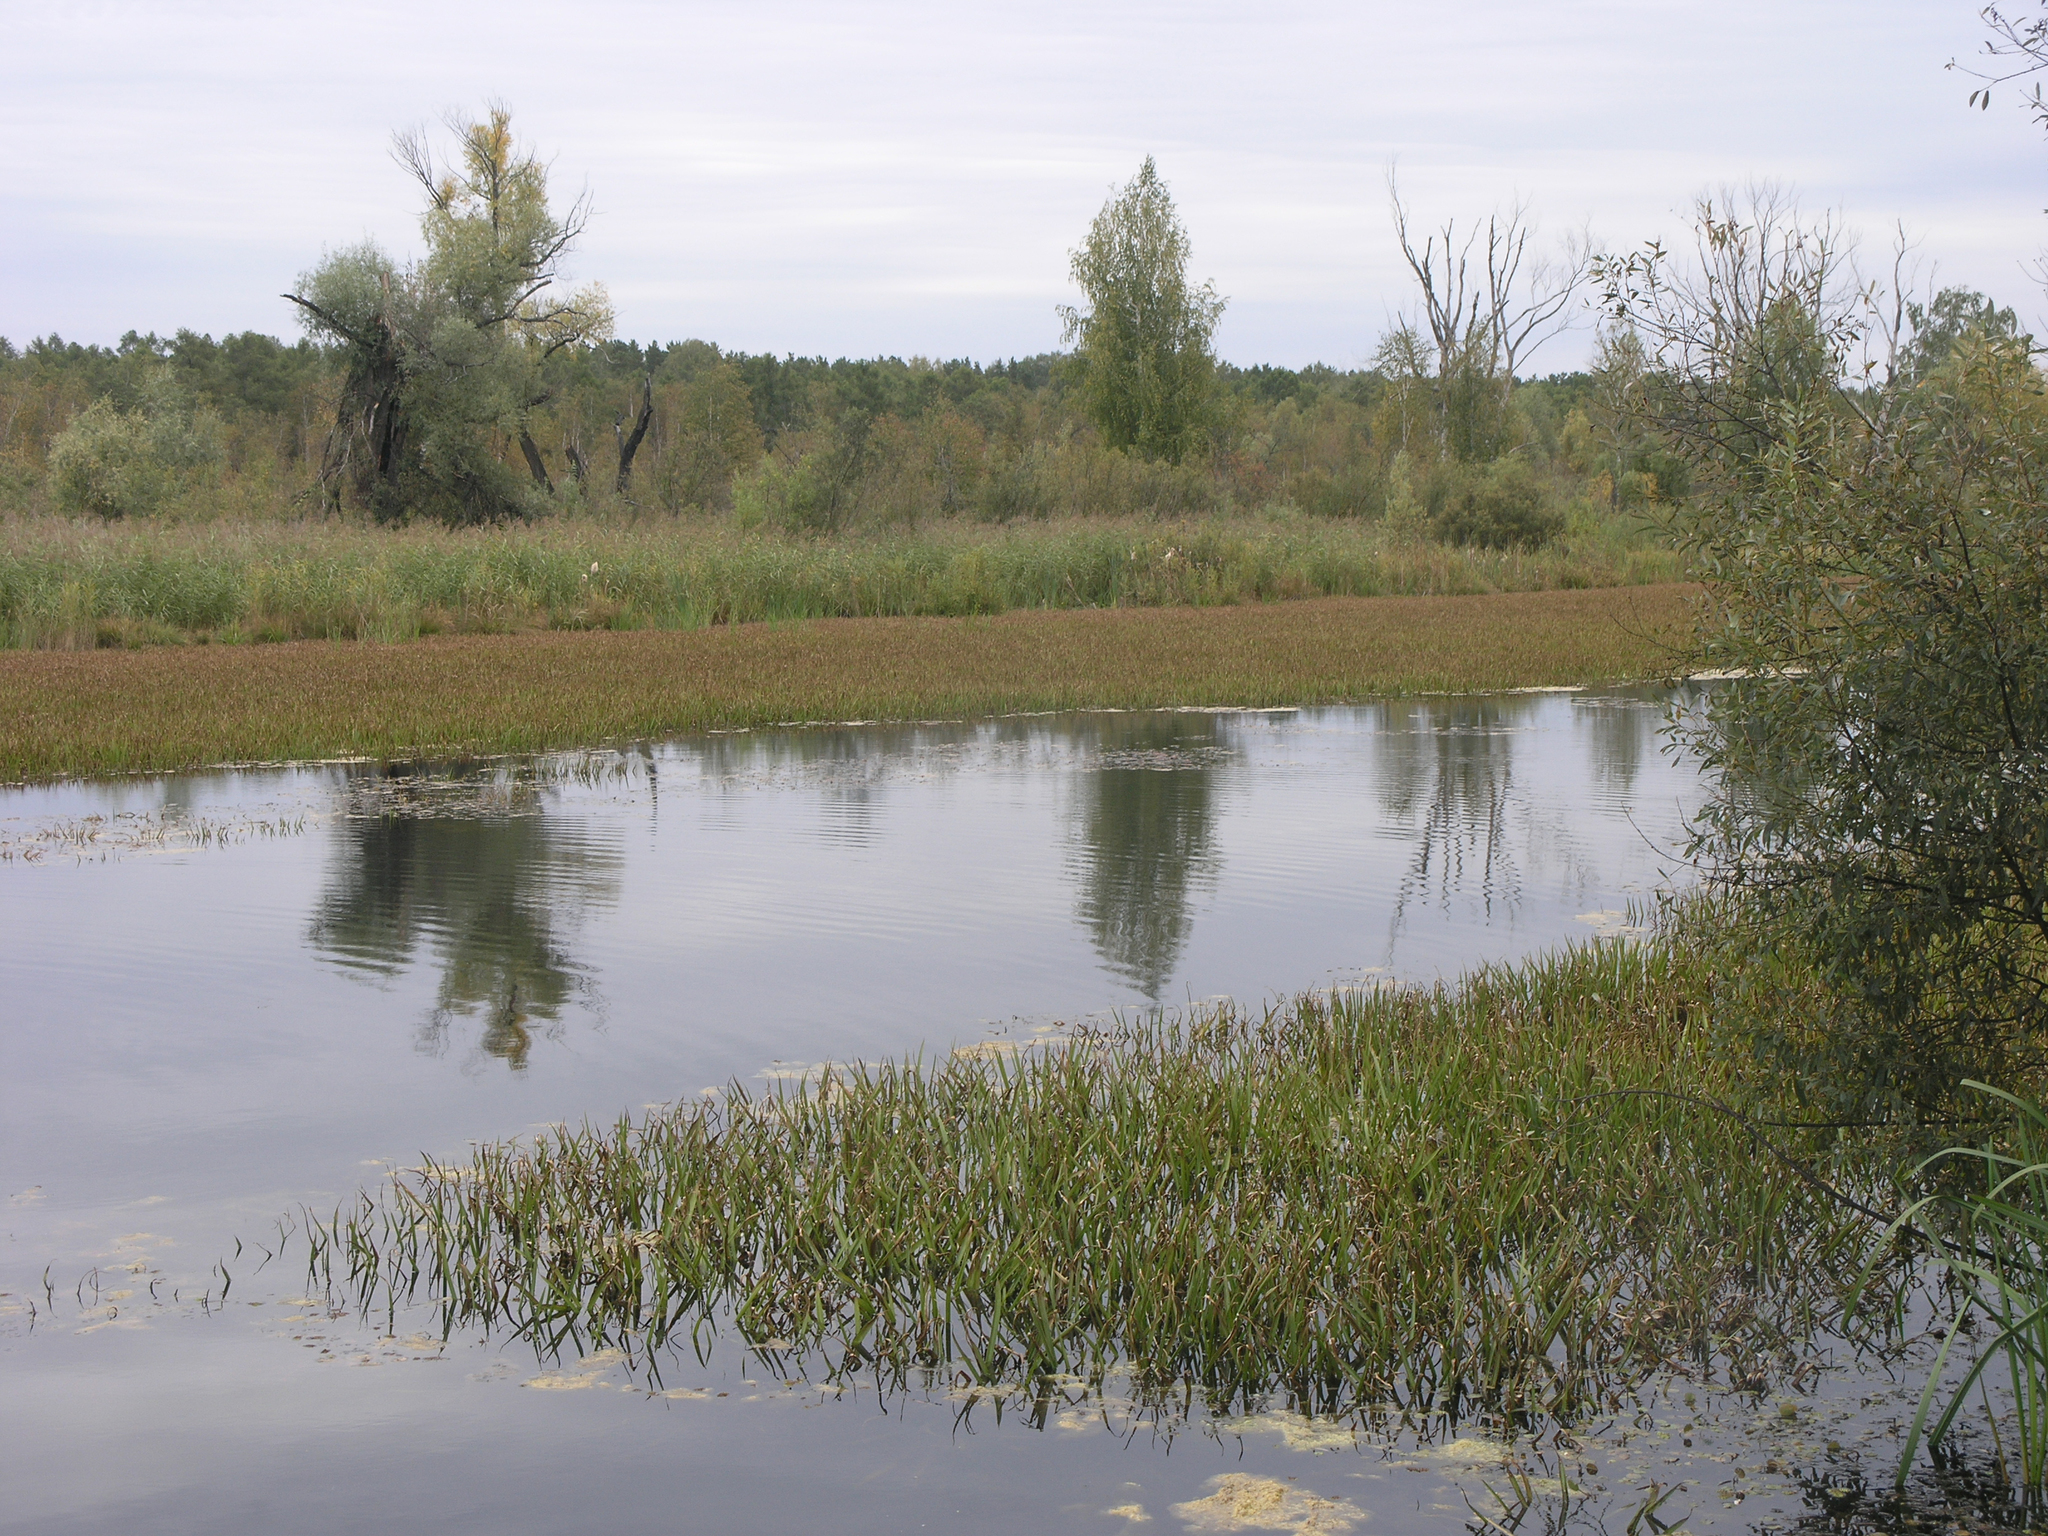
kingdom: Plantae
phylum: Tracheophyta
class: Liliopsida
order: Alismatales
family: Hydrocharitaceae
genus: Stratiotes
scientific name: Stratiotes aloides
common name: Water-soldier
